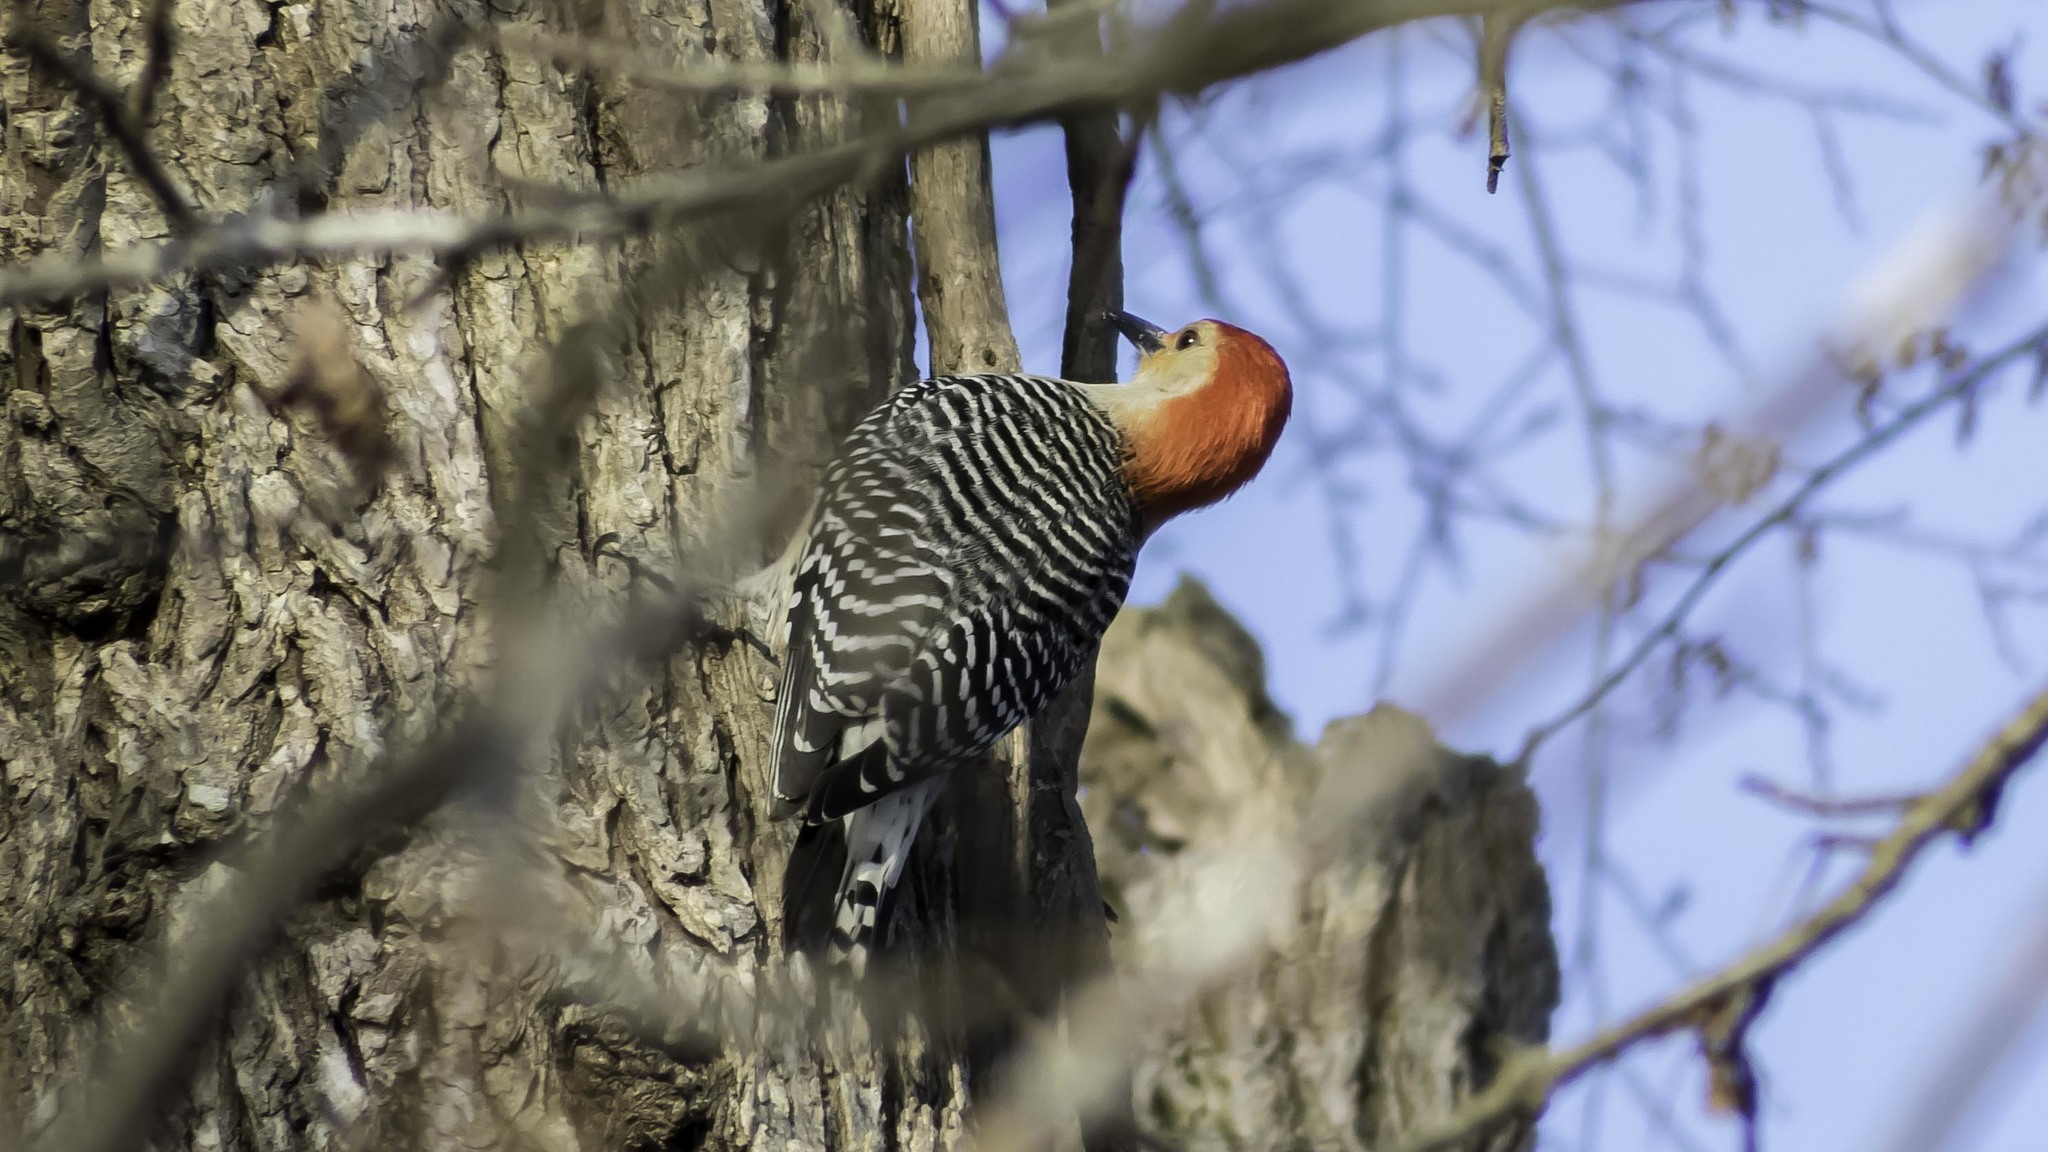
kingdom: Animalia
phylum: Chordata
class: Aves
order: Piciformes
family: Picidae
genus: Melanerpes
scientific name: Melanerpes carolinus
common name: Red-bellied woodpecker
